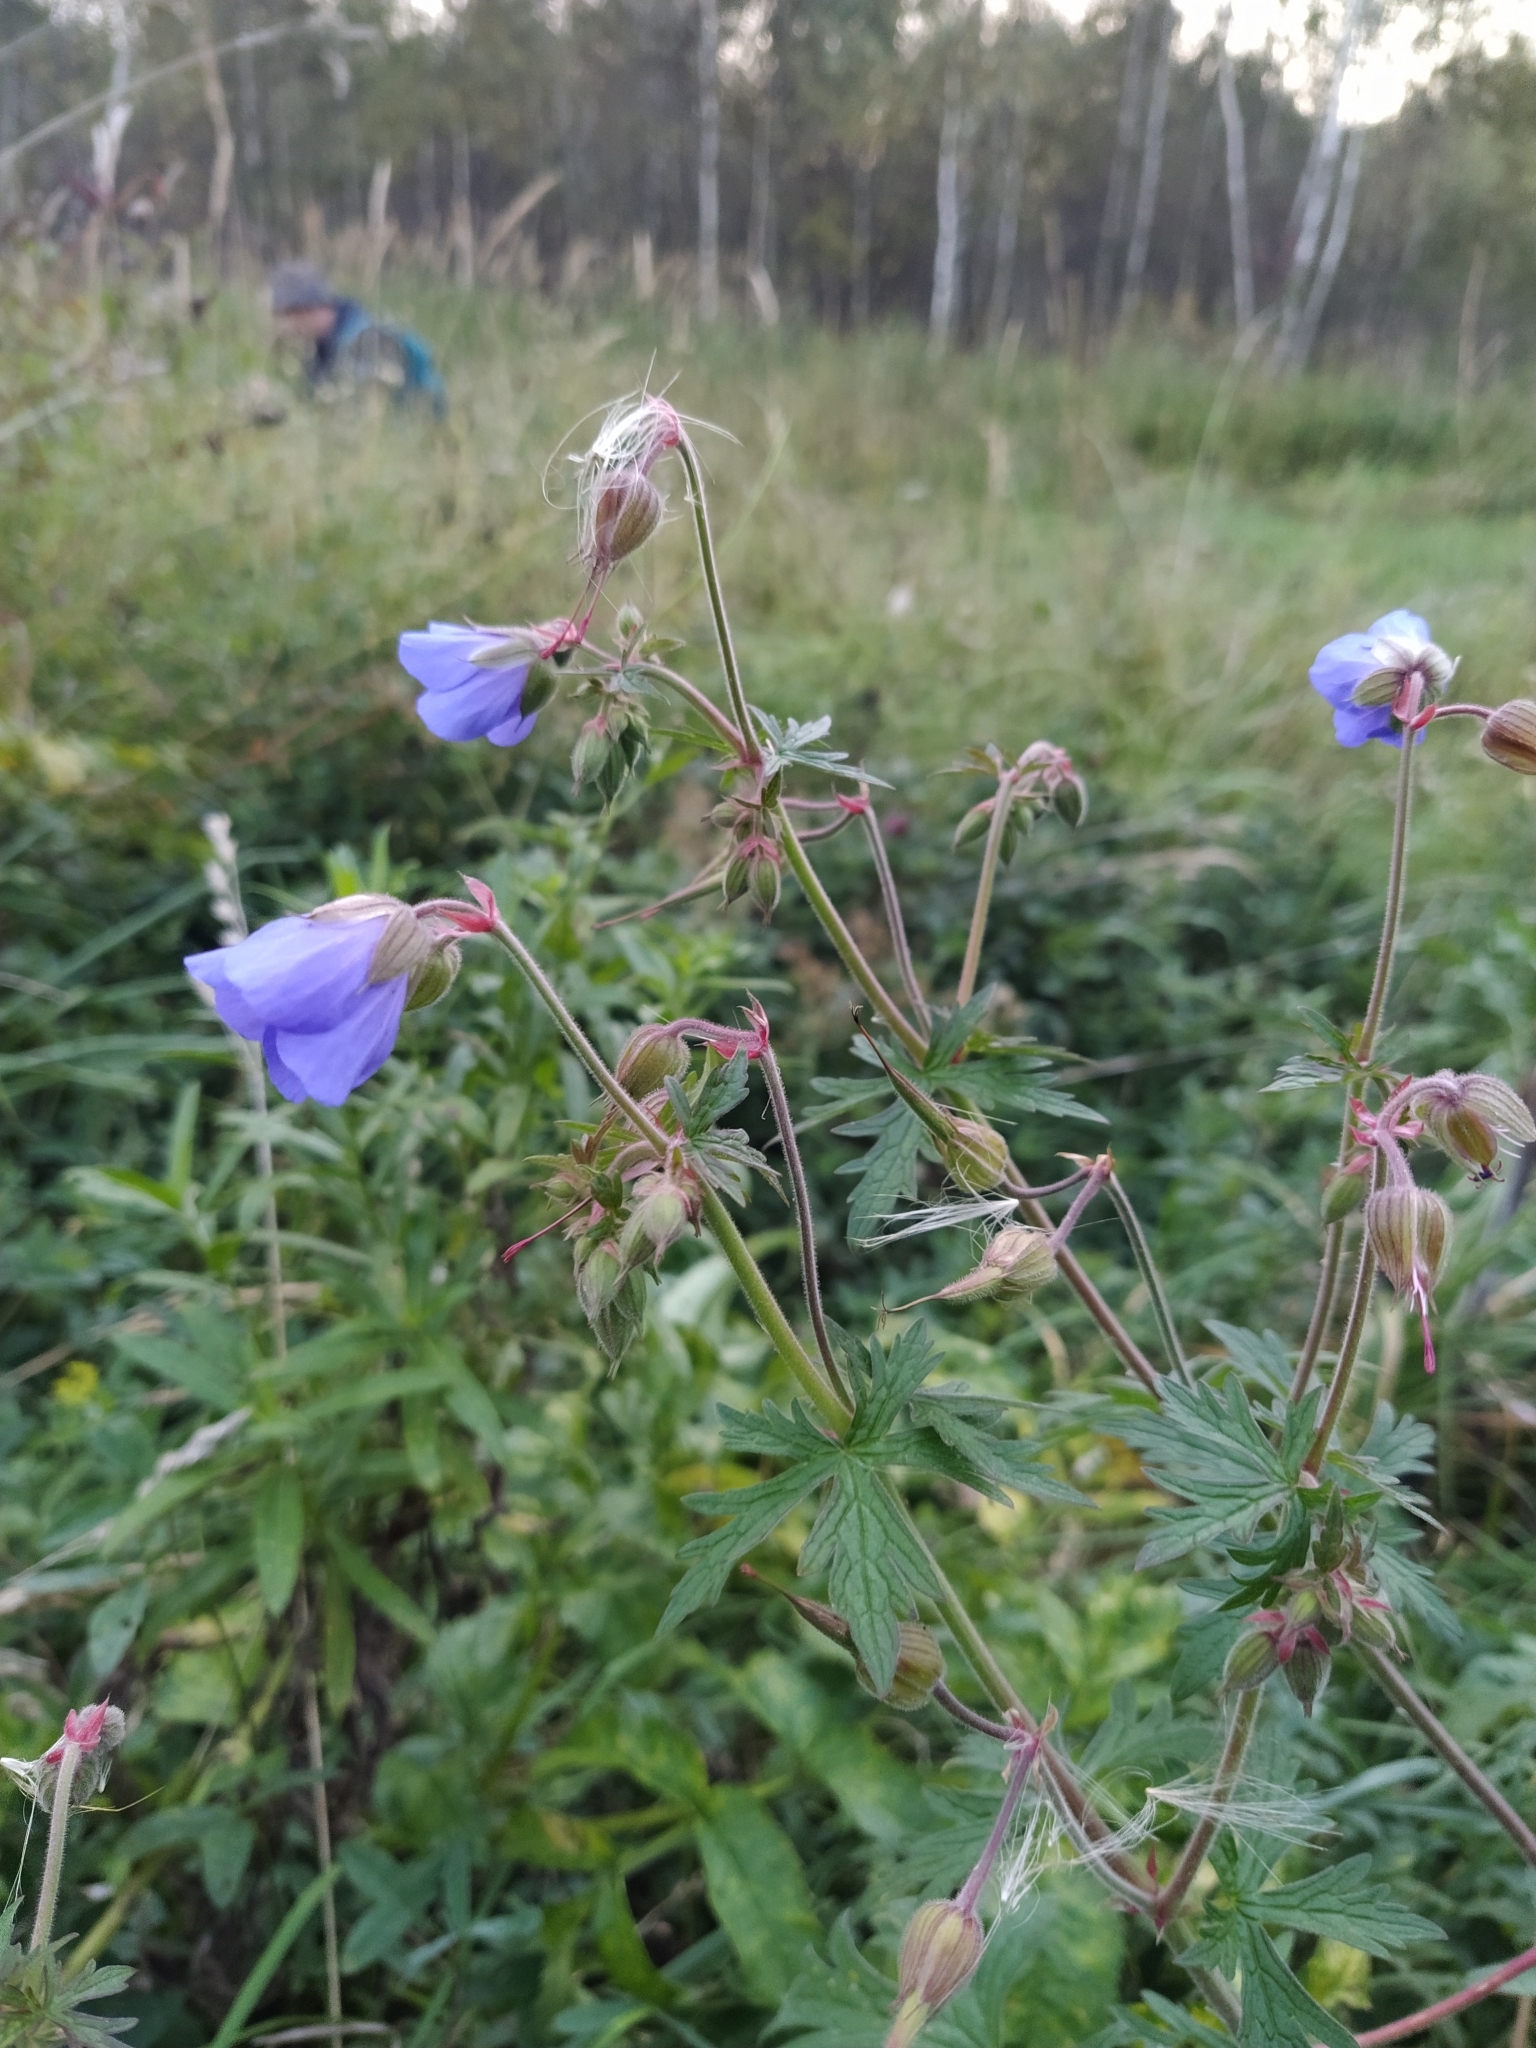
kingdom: Plantae
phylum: Tracheophyta
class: Magnoliopsida
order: Geraniales
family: Geraniaceae
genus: Geranium
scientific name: Geranium pratense
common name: Meadow crane's-bill
